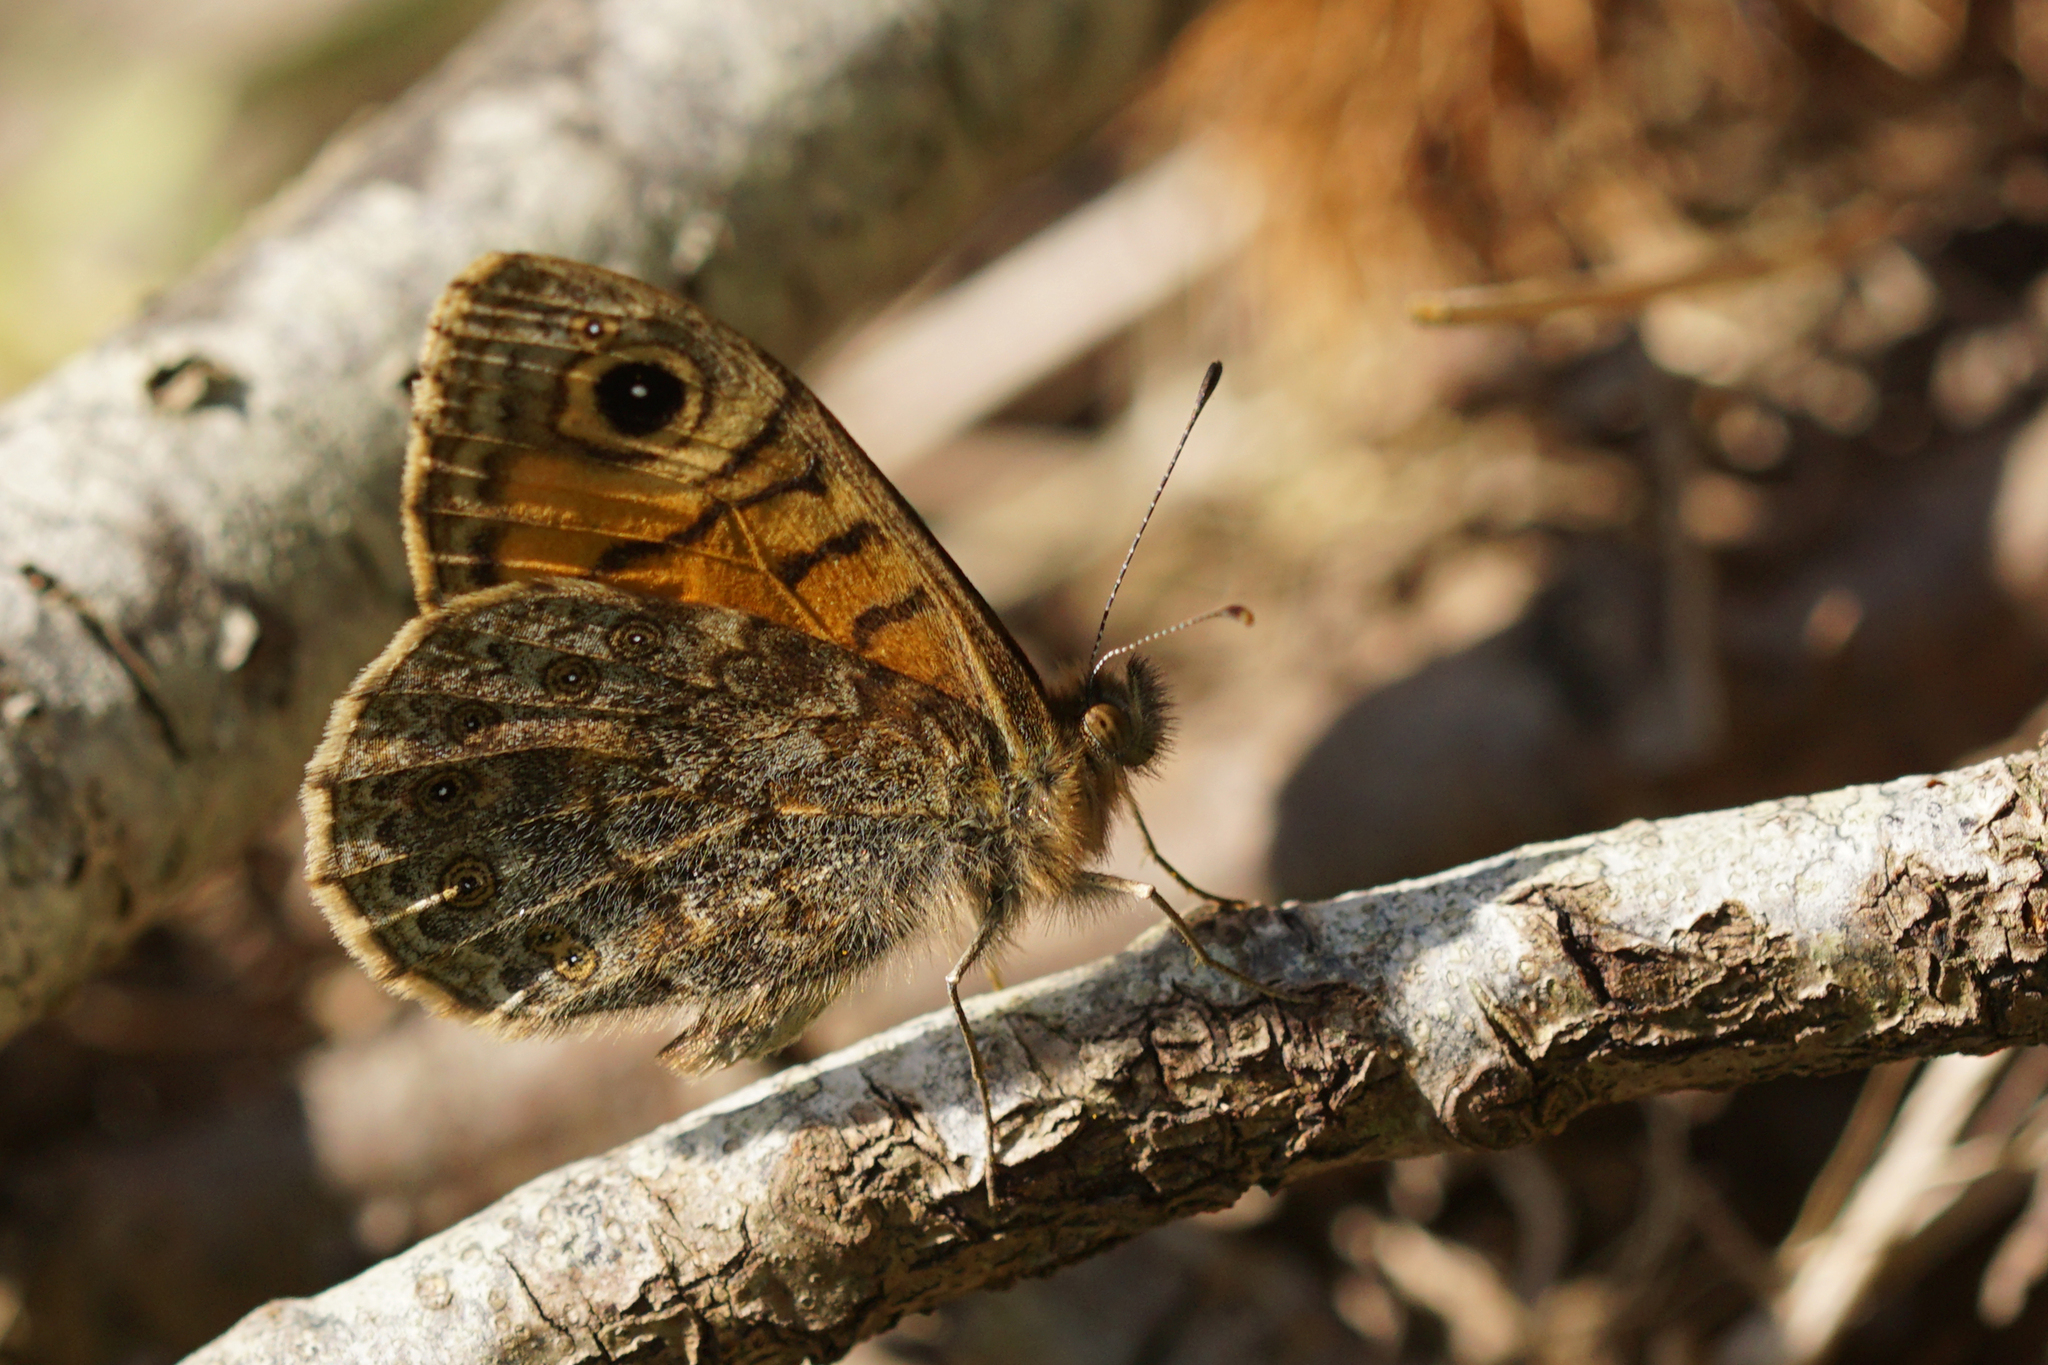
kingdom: Animalia
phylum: Arthropoda
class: Insecta
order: Lepidoptera
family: Nymphalidae
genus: Pararge
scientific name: Pararge Lasiommata megera
